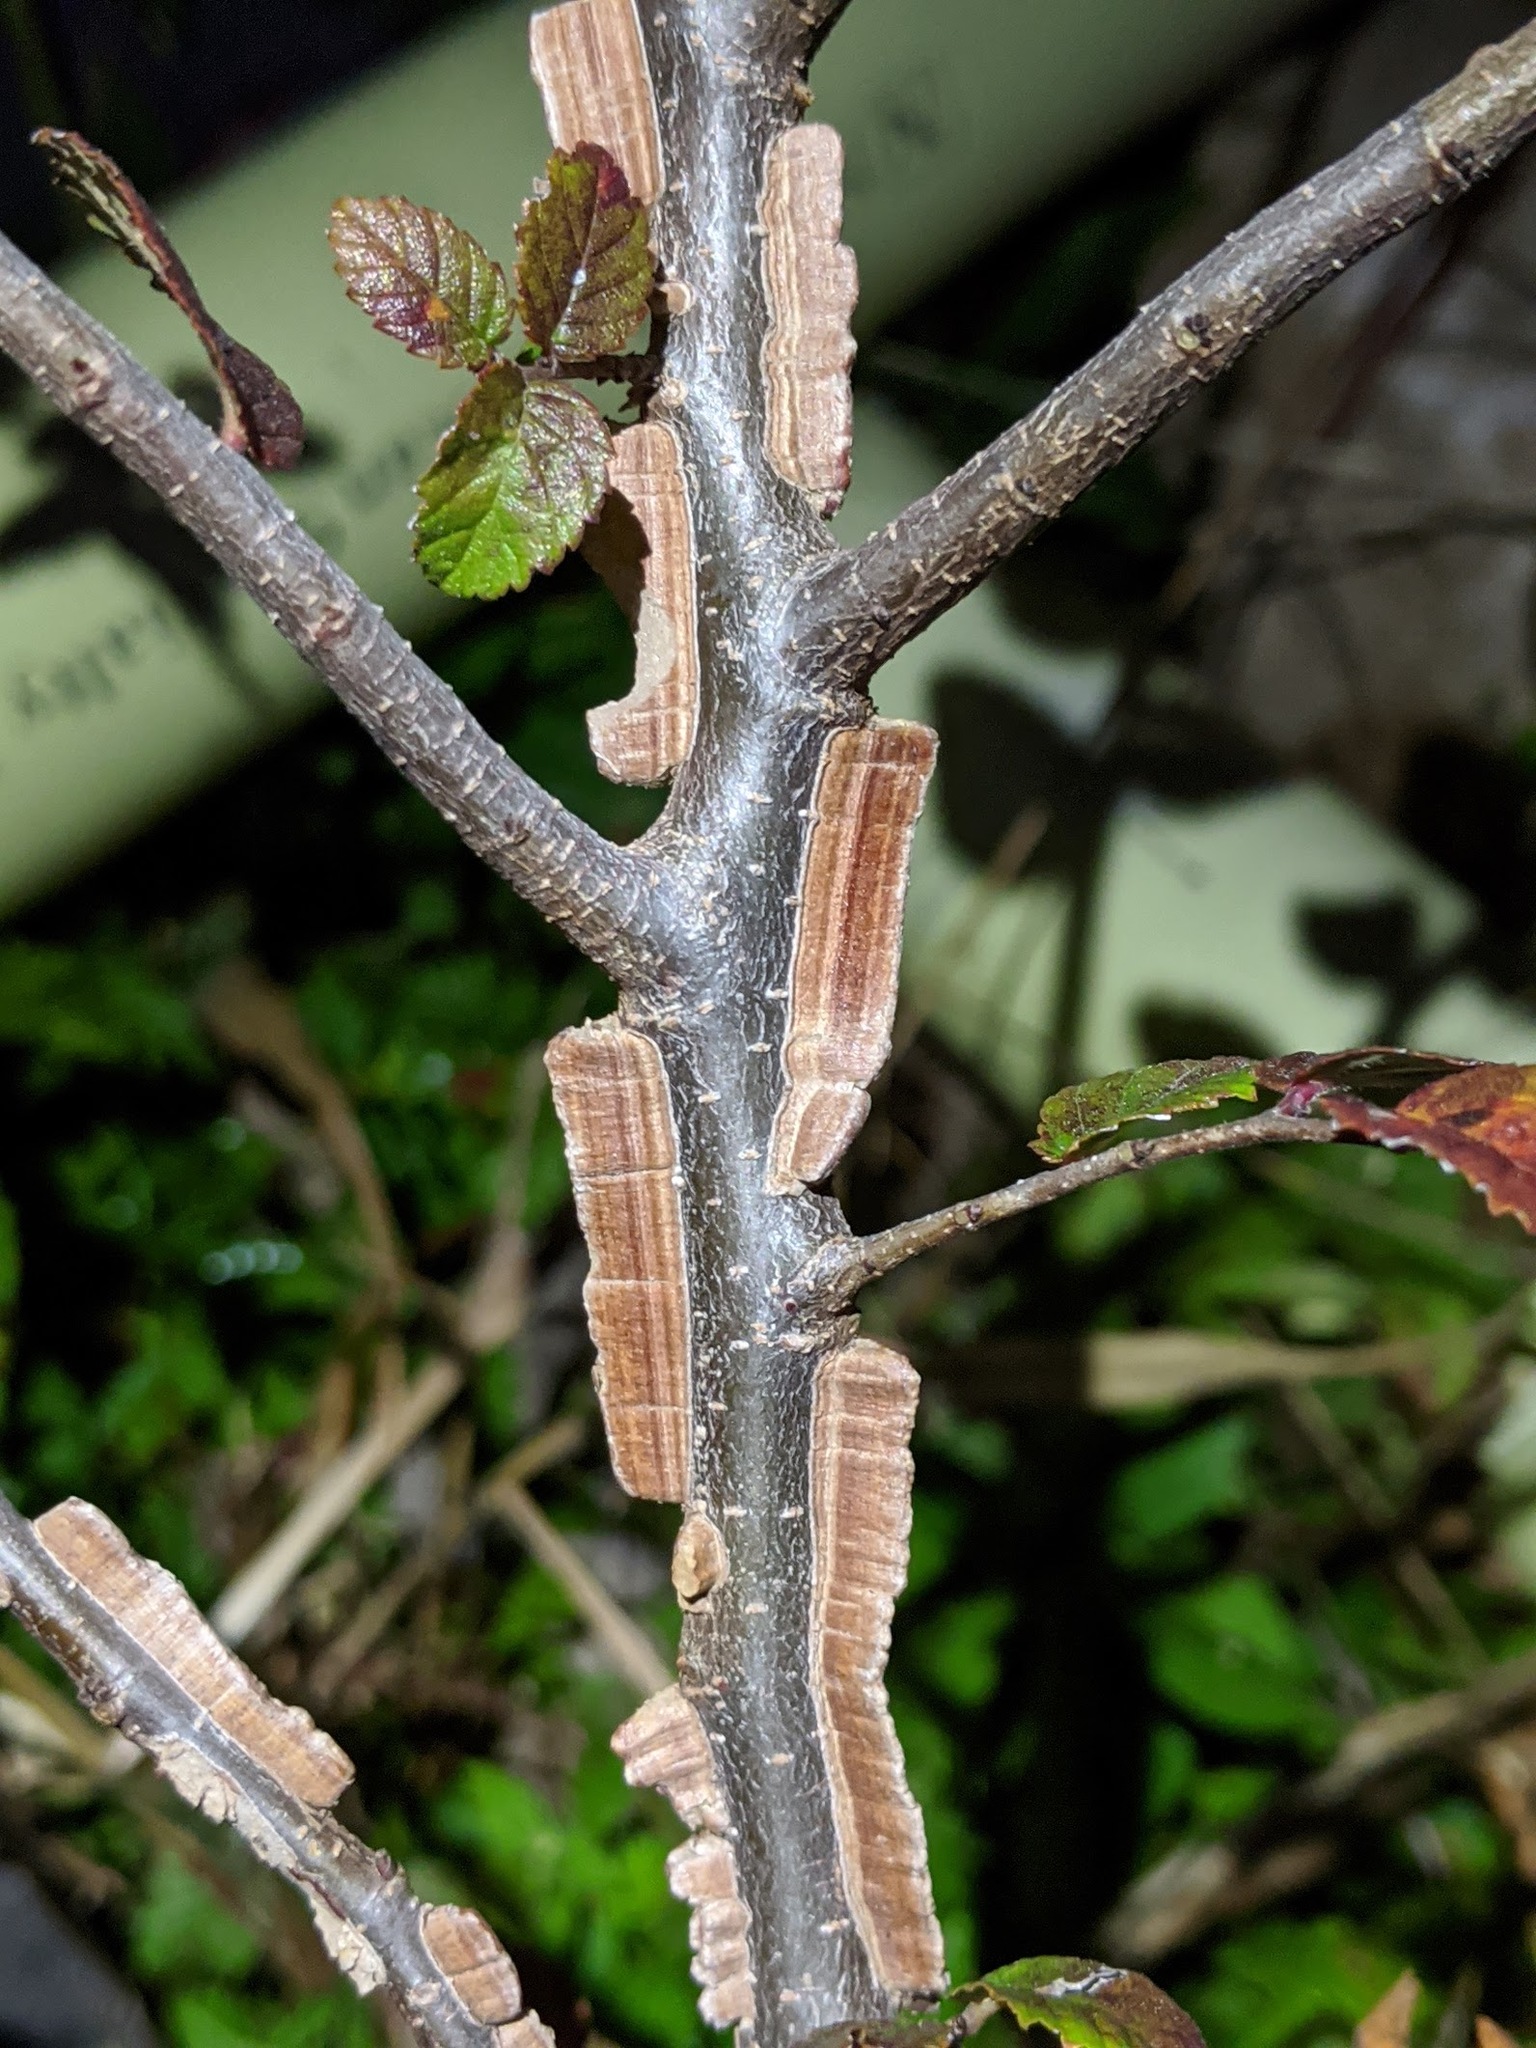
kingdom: Plantae
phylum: Tracheophyta
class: Magnoliopsida
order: Rosales
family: Ulmaceae
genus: Ulmus
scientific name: Ulmus crassifolia
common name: Basket elm
